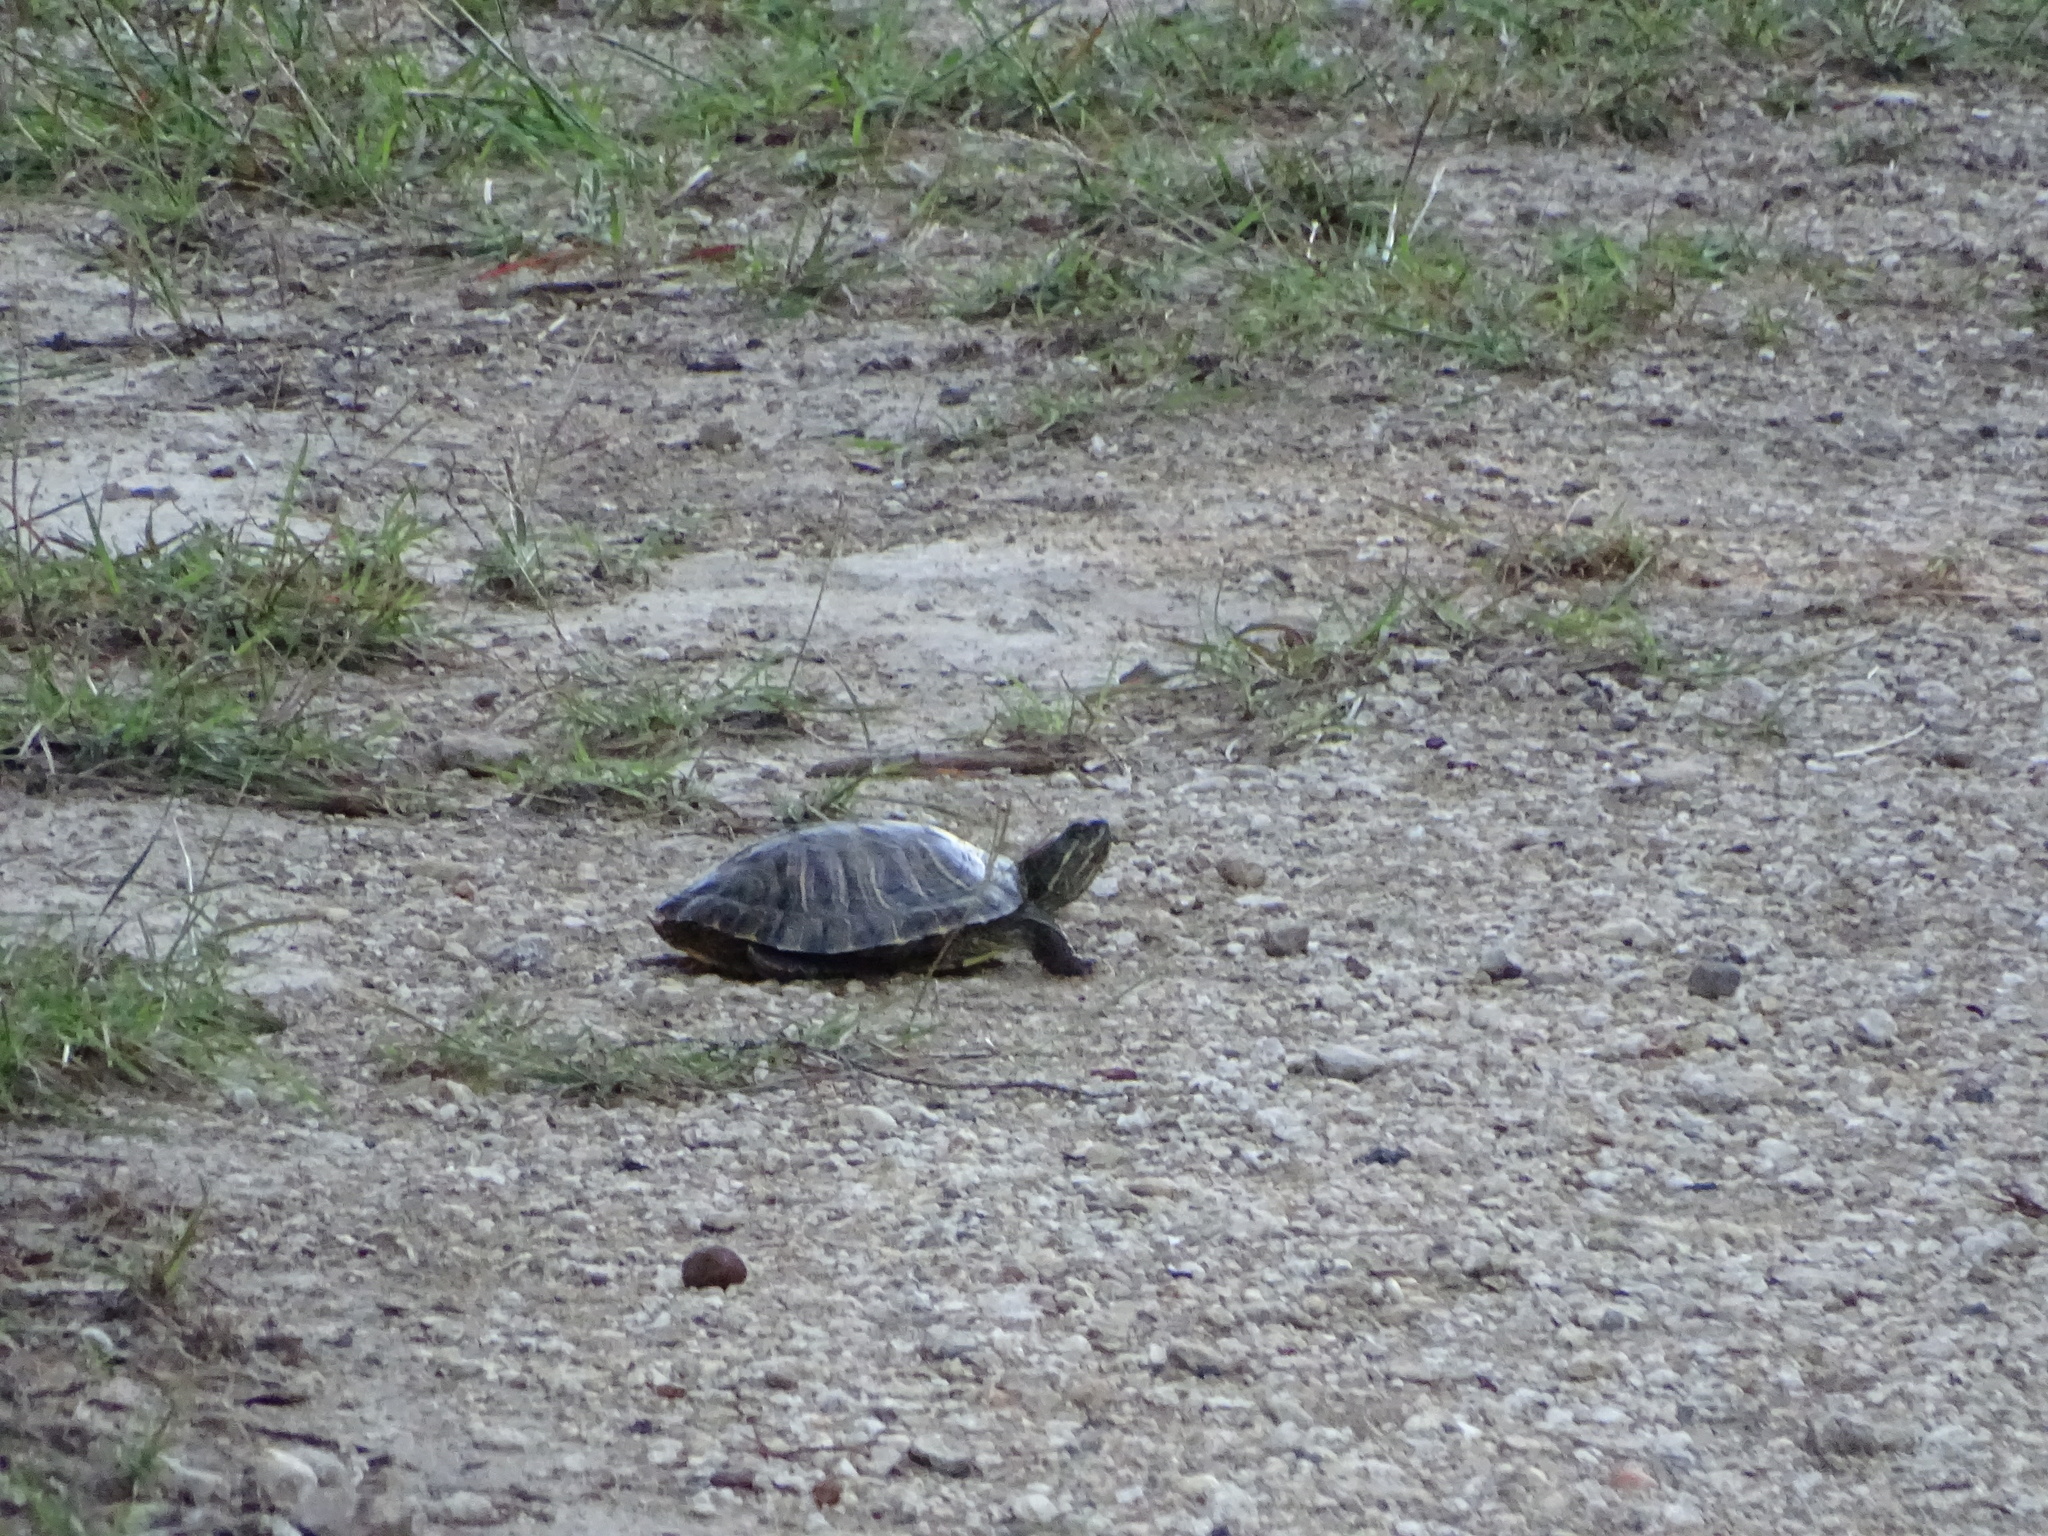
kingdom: Animalia
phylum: Chordata
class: Testudines
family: Emydidae
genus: Trachemys
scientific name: Trachemys scripta
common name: Slider
